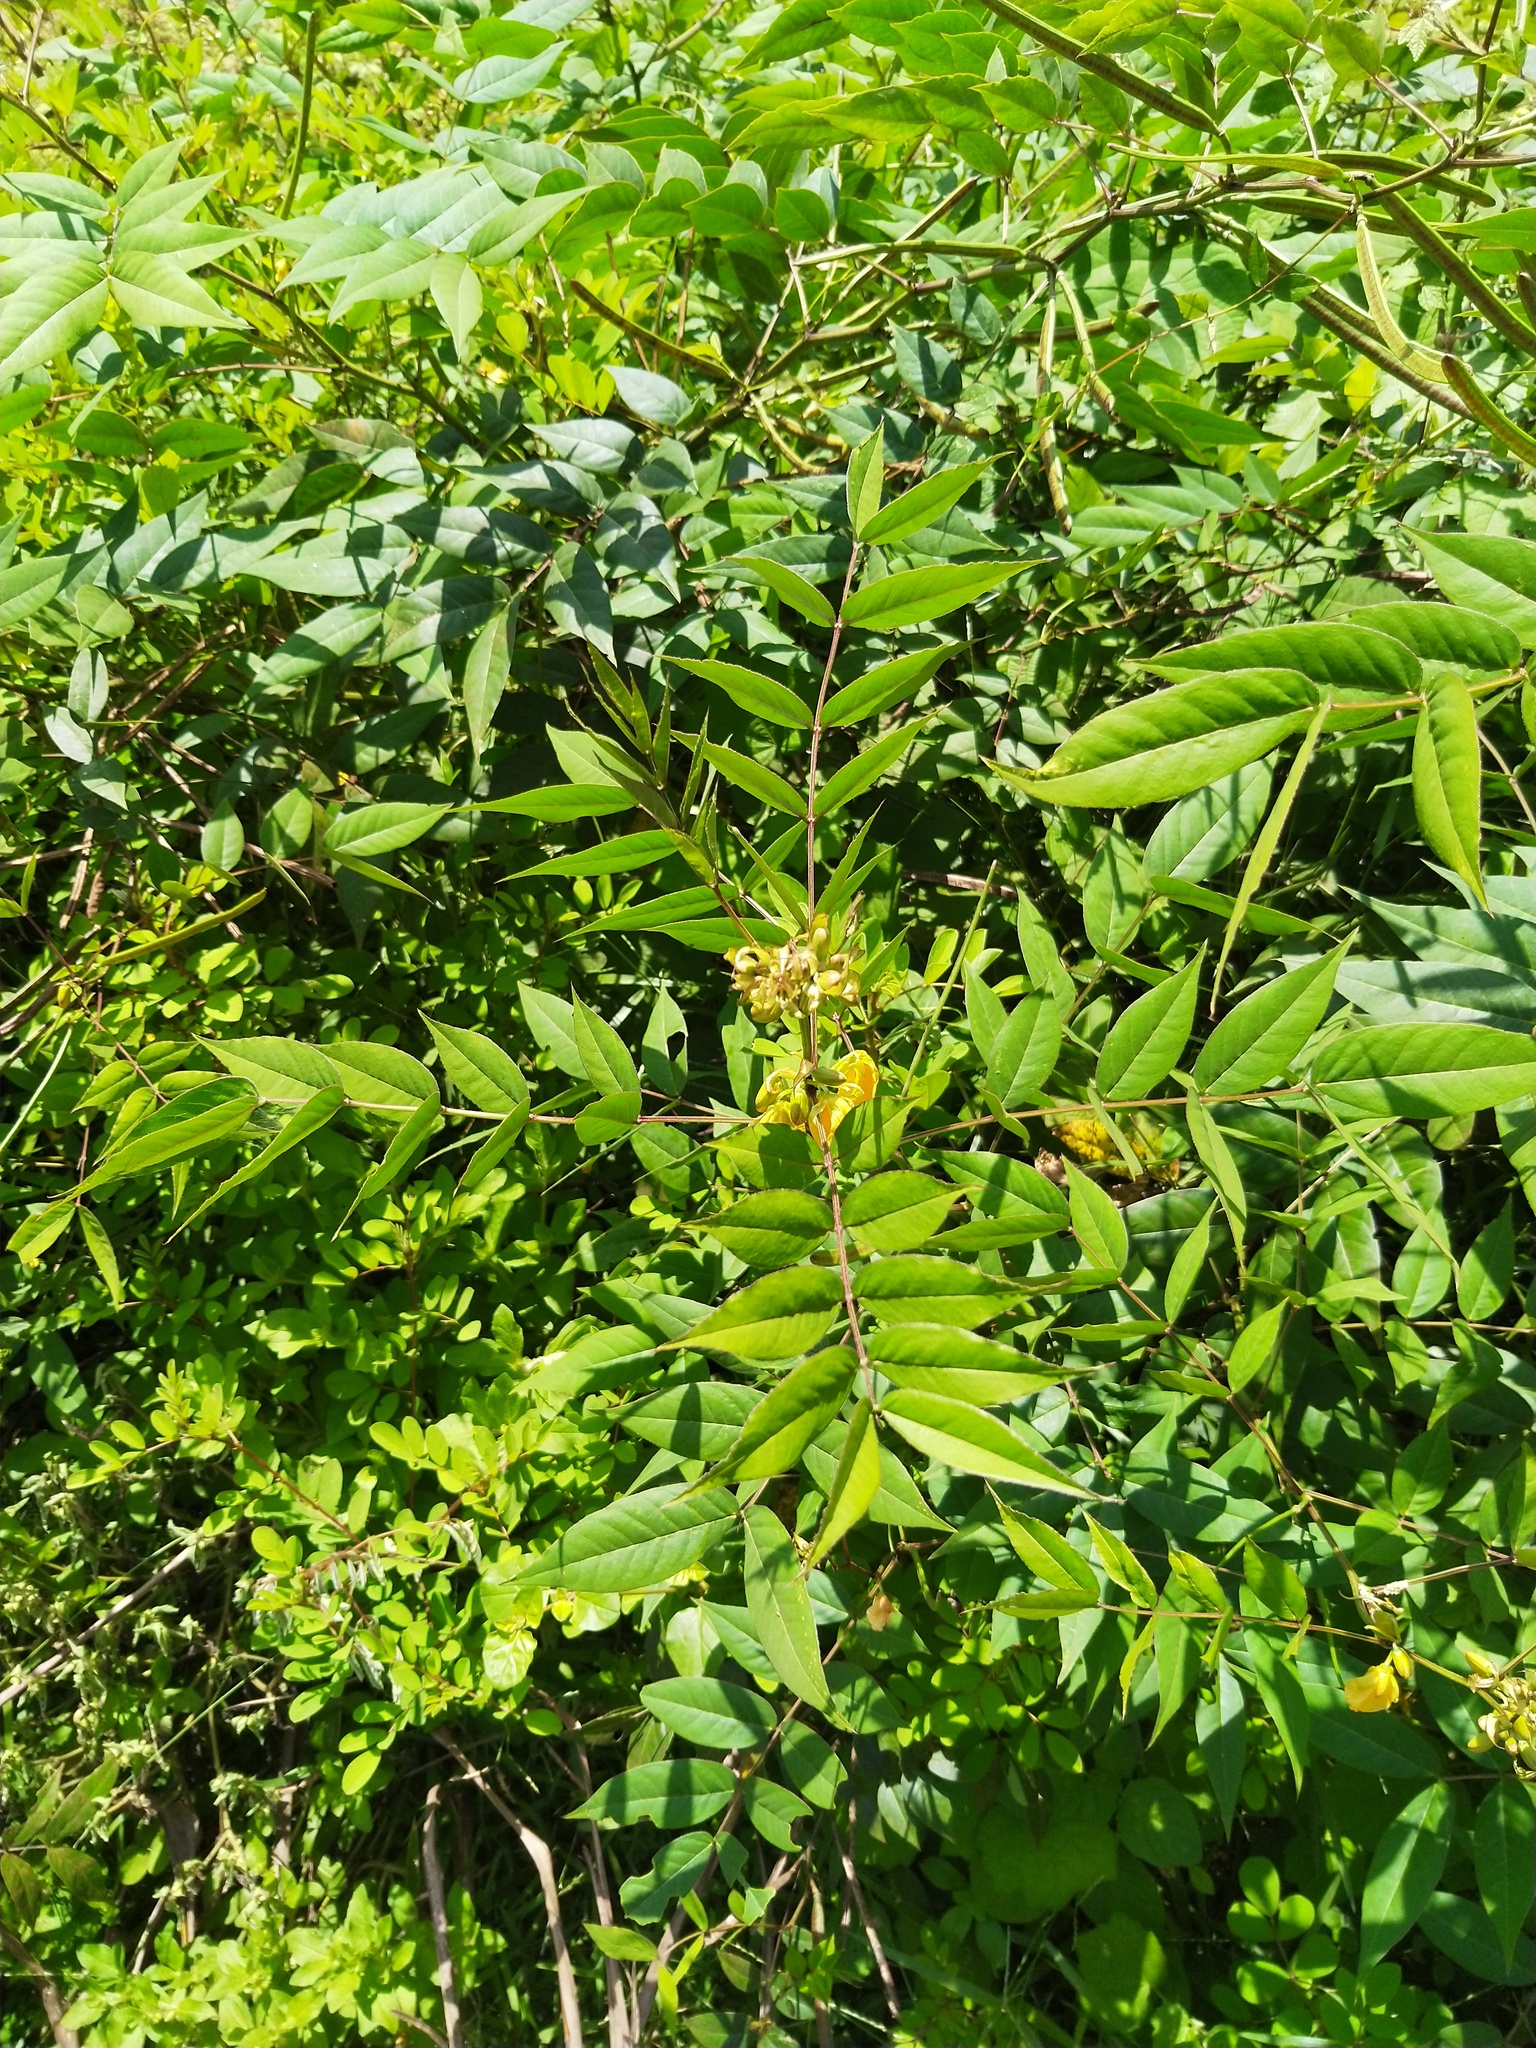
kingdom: Plantae
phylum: Tracheophyta
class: Magnoliopsida
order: Fabales
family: Fabaceae
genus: Senna
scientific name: Senna occidentalis
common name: Septicweed
